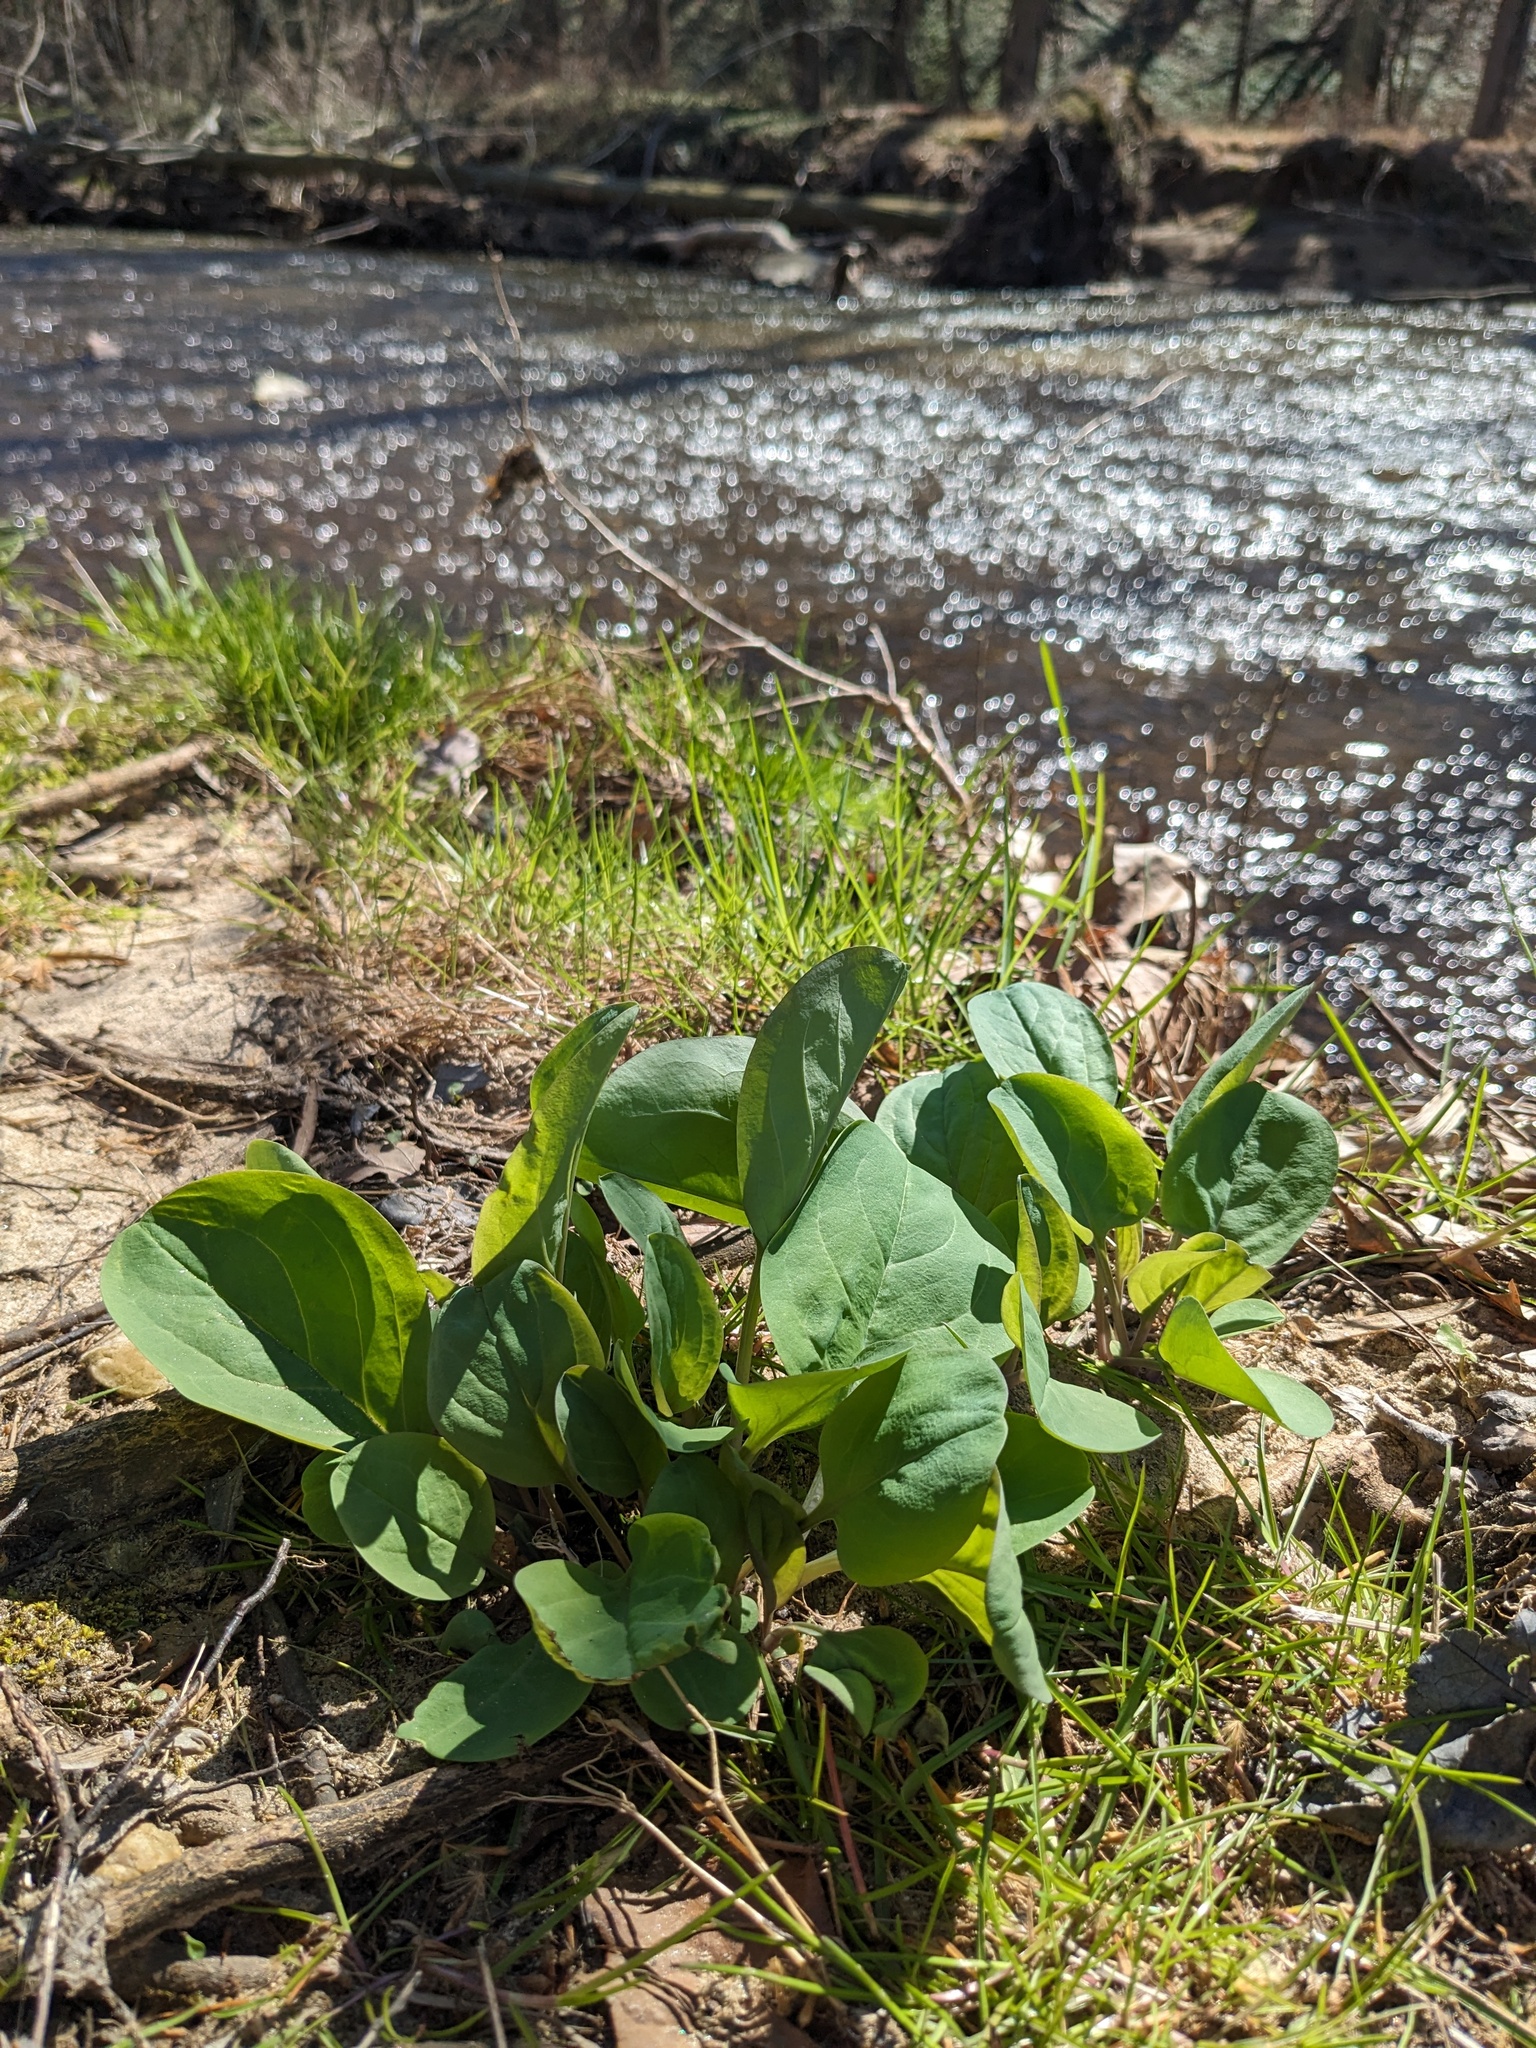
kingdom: Plantae
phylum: Tracheophyta
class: Magnoliopsida
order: Boraginales
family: Boraginaceae
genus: Mertensia
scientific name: Mertensia virginica
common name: Virginia bluebells
